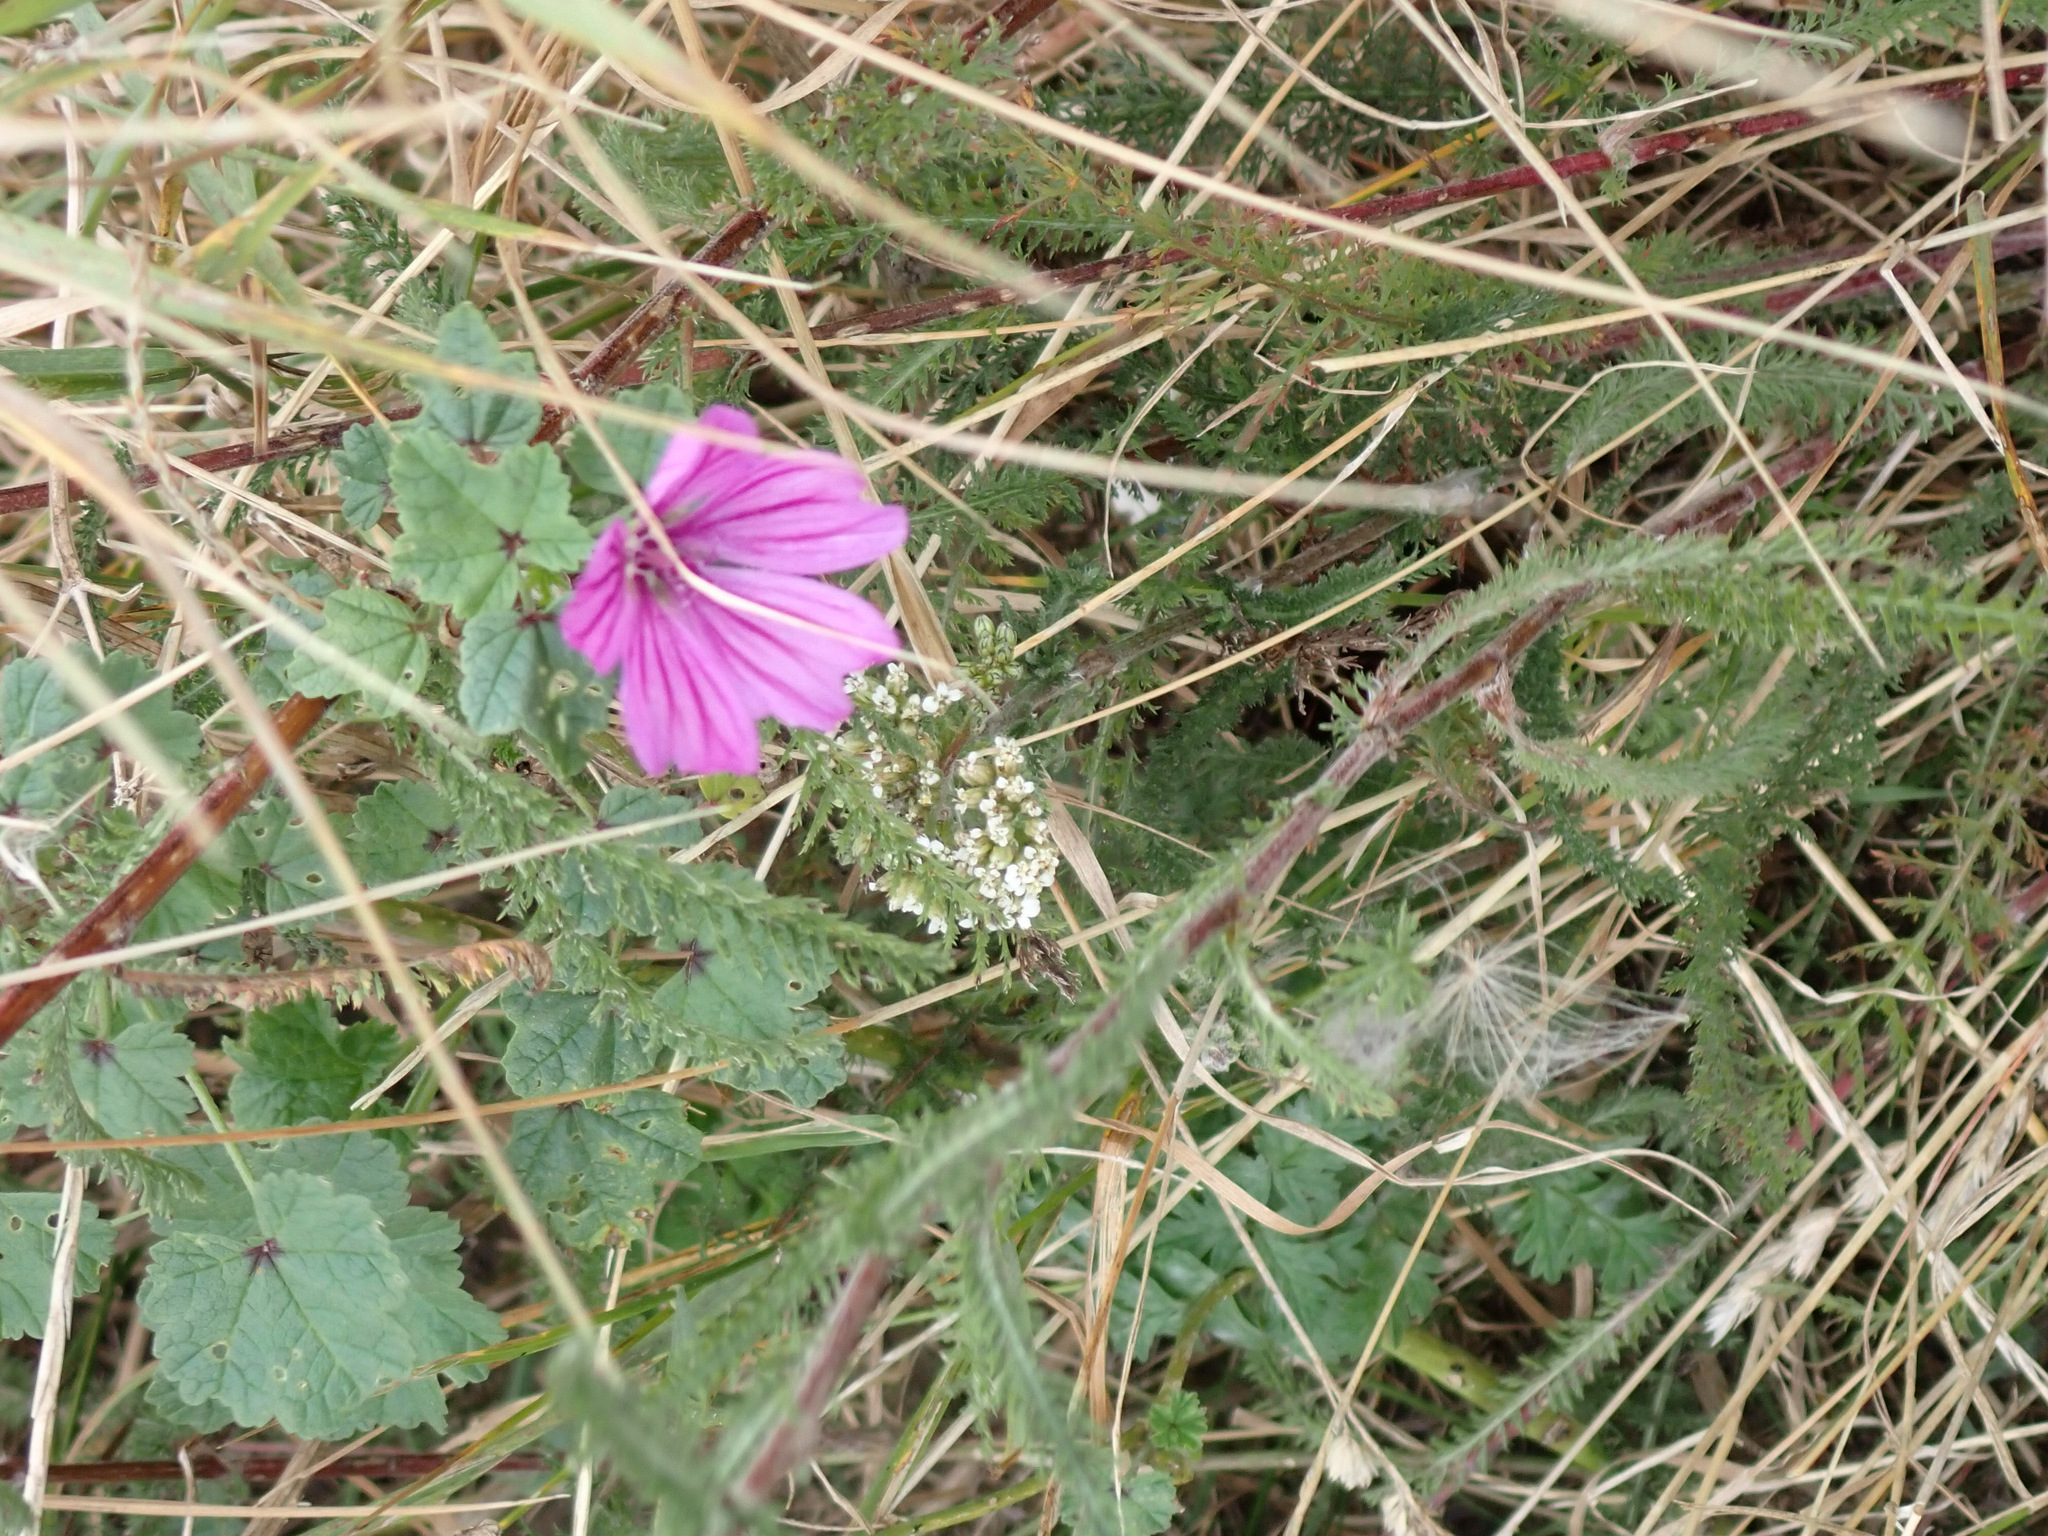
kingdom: Plantae
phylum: Tracheophyta
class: Magnoliopsida
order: Malvales
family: Malvaceae
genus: Malva
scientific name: Malva sylvestris
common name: Common mallow
